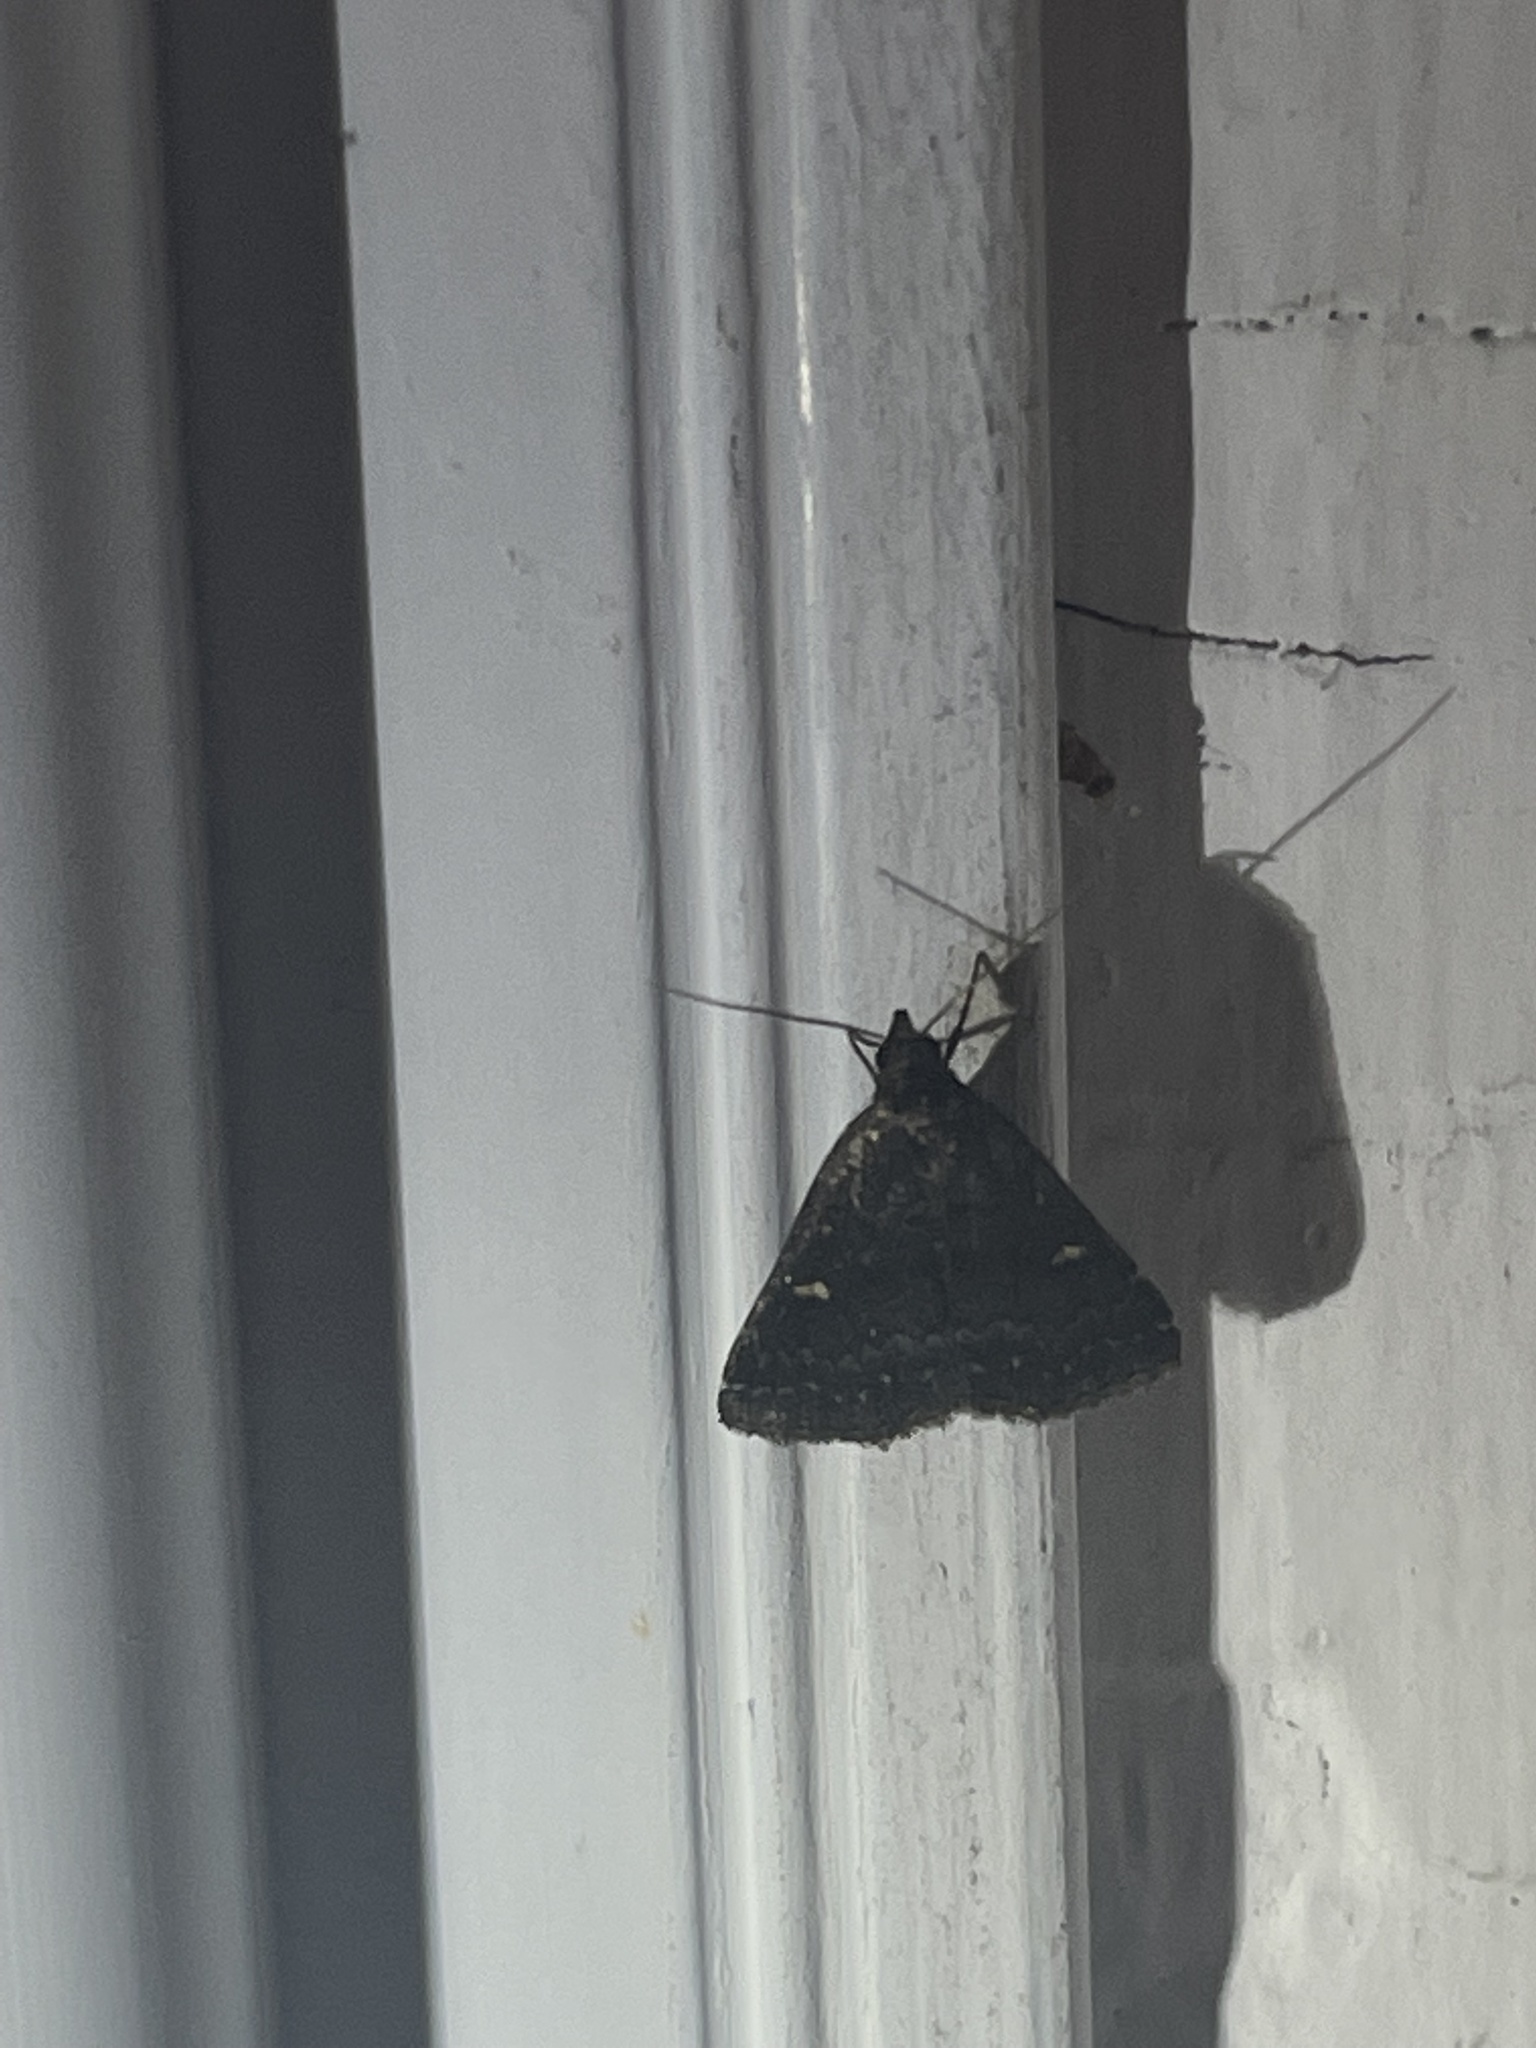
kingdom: Animalia
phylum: Arthropoda
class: Insecta
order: Lepidoptera
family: Erebidae
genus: Tetanolita
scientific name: Tetanolita mynesalis
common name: Smoky tetanolita moth
